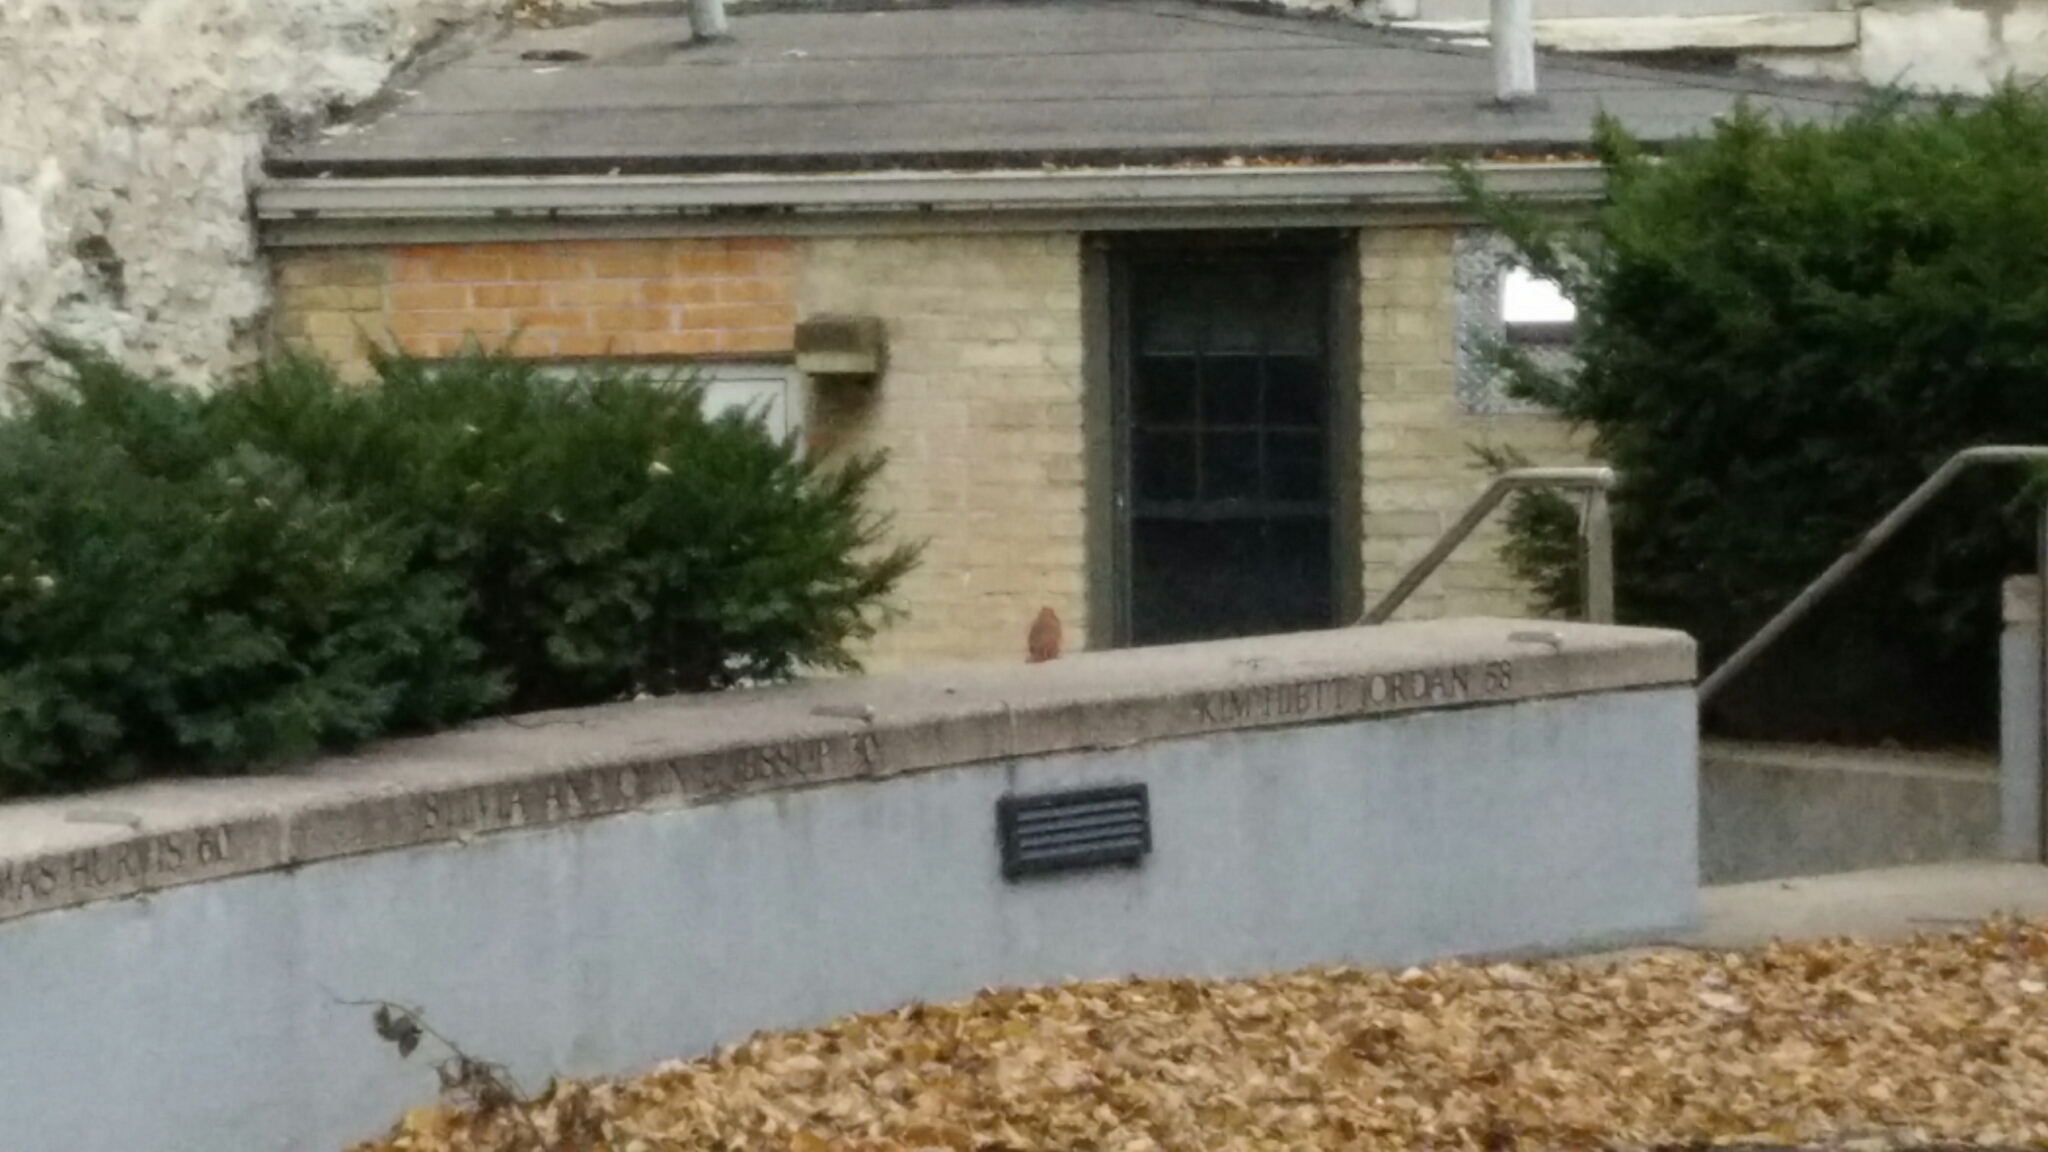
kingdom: Animalia
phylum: Chordata
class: Aves
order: Passeriformes
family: Cardinalidae
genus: Cardinalis
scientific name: Cardinalis cardinalis
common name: Northern cardinal
